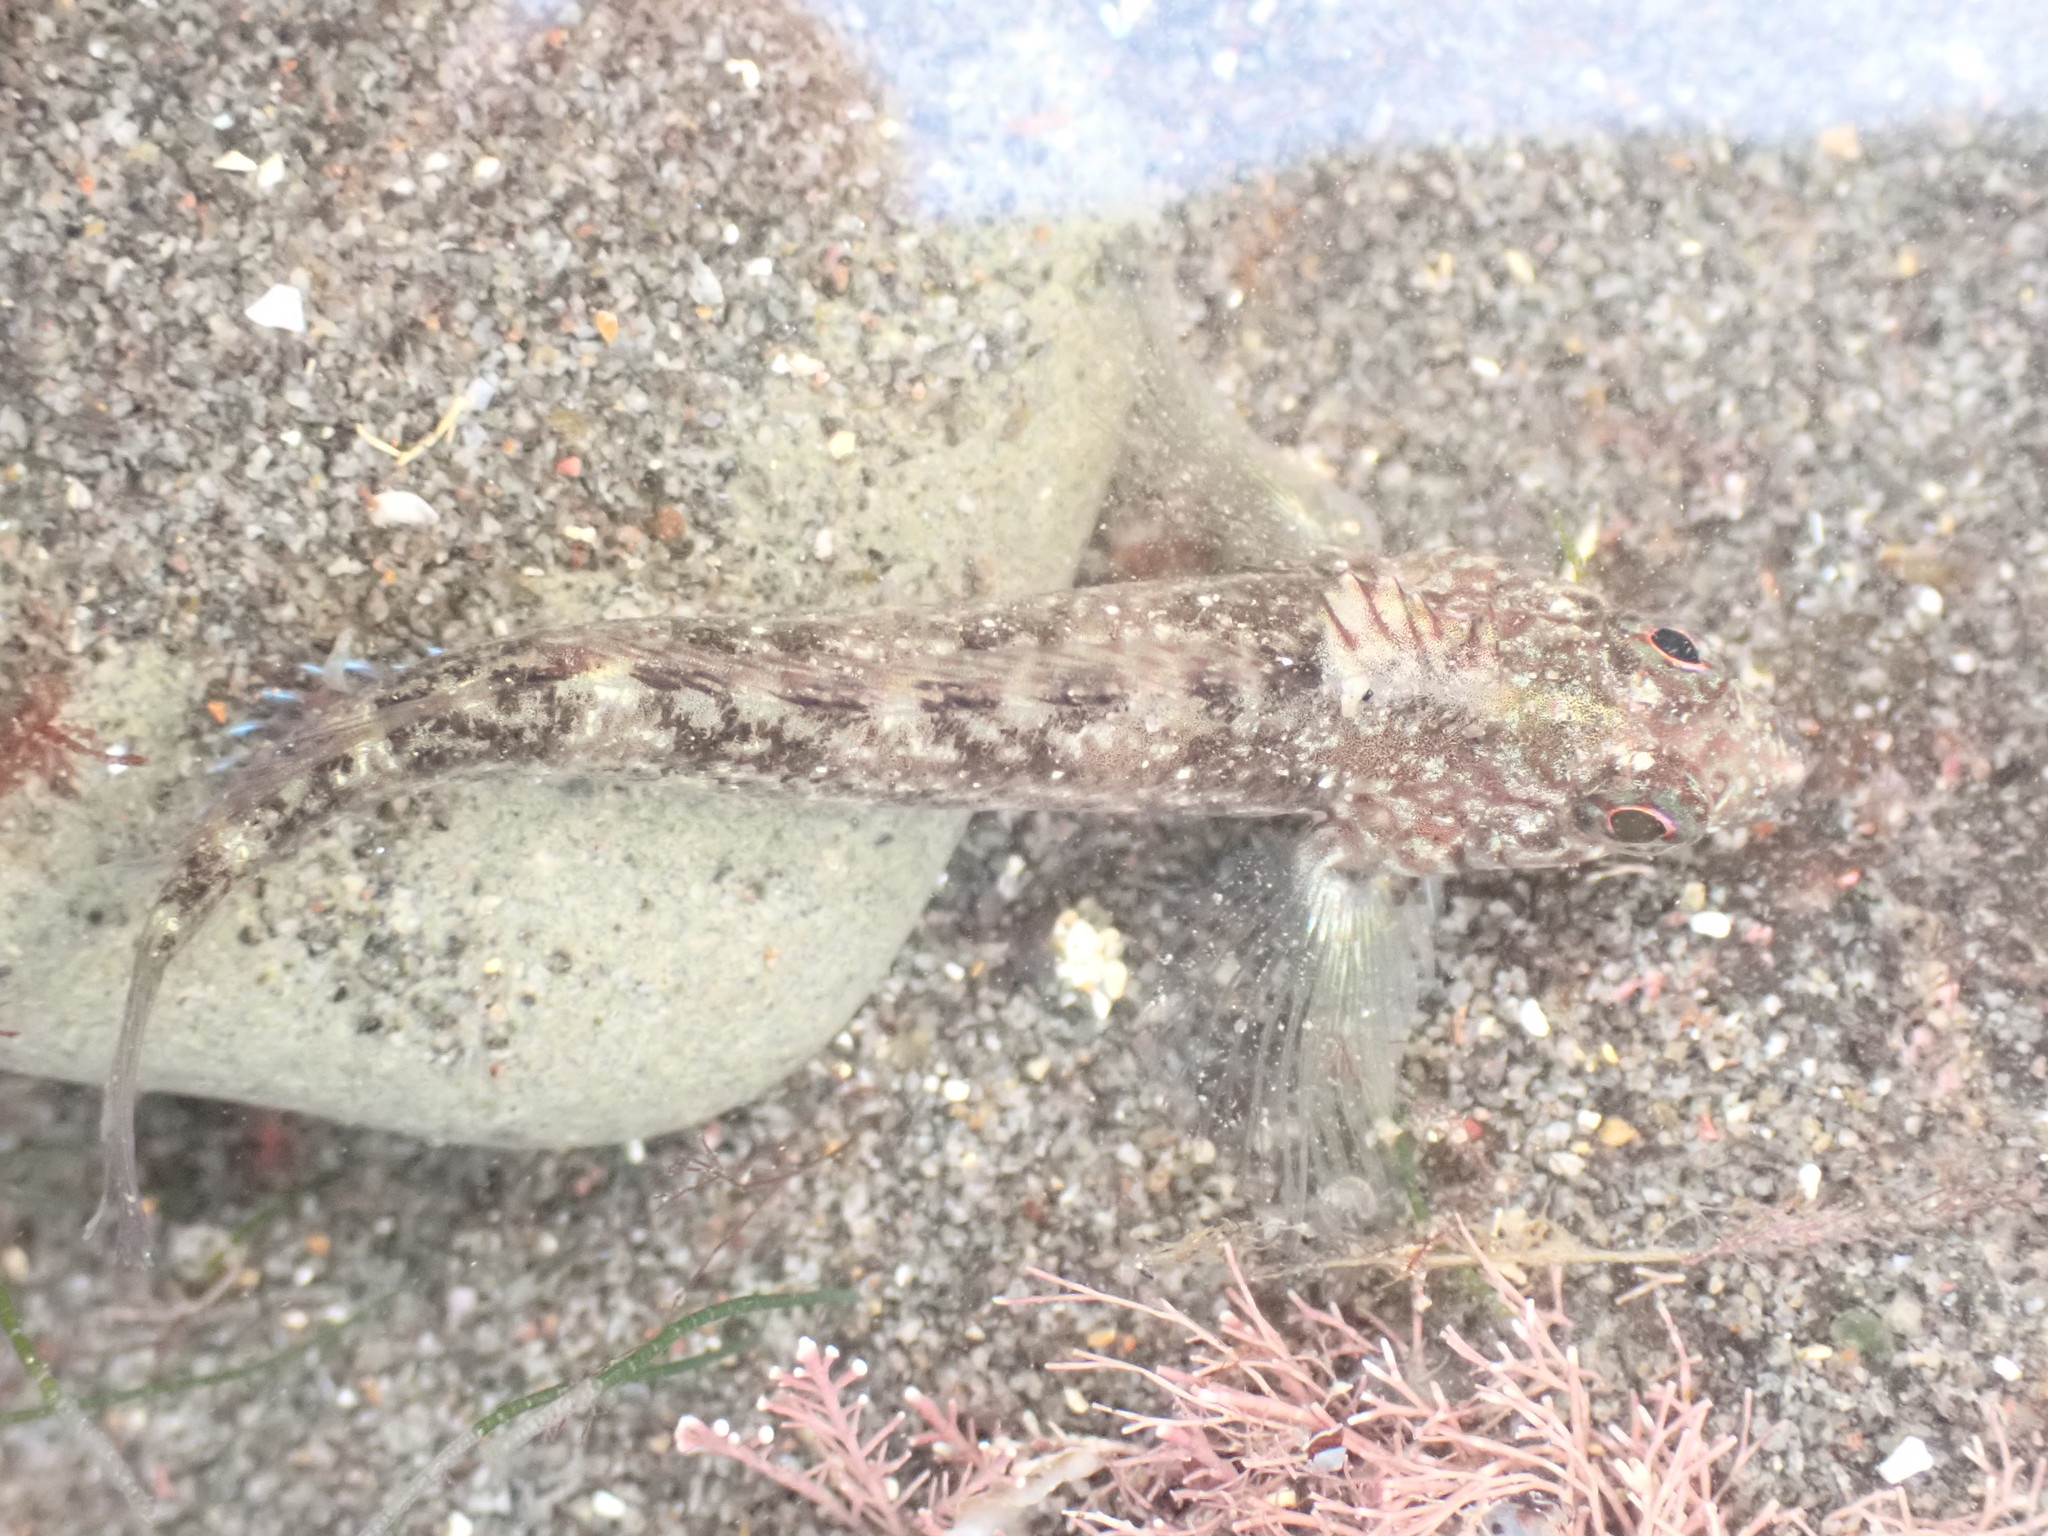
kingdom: Animalia
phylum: Chordata
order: Perciformes
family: Tripterygiidae
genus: Forsterygion
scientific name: Forsterygion lapillum
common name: Common triplefin
